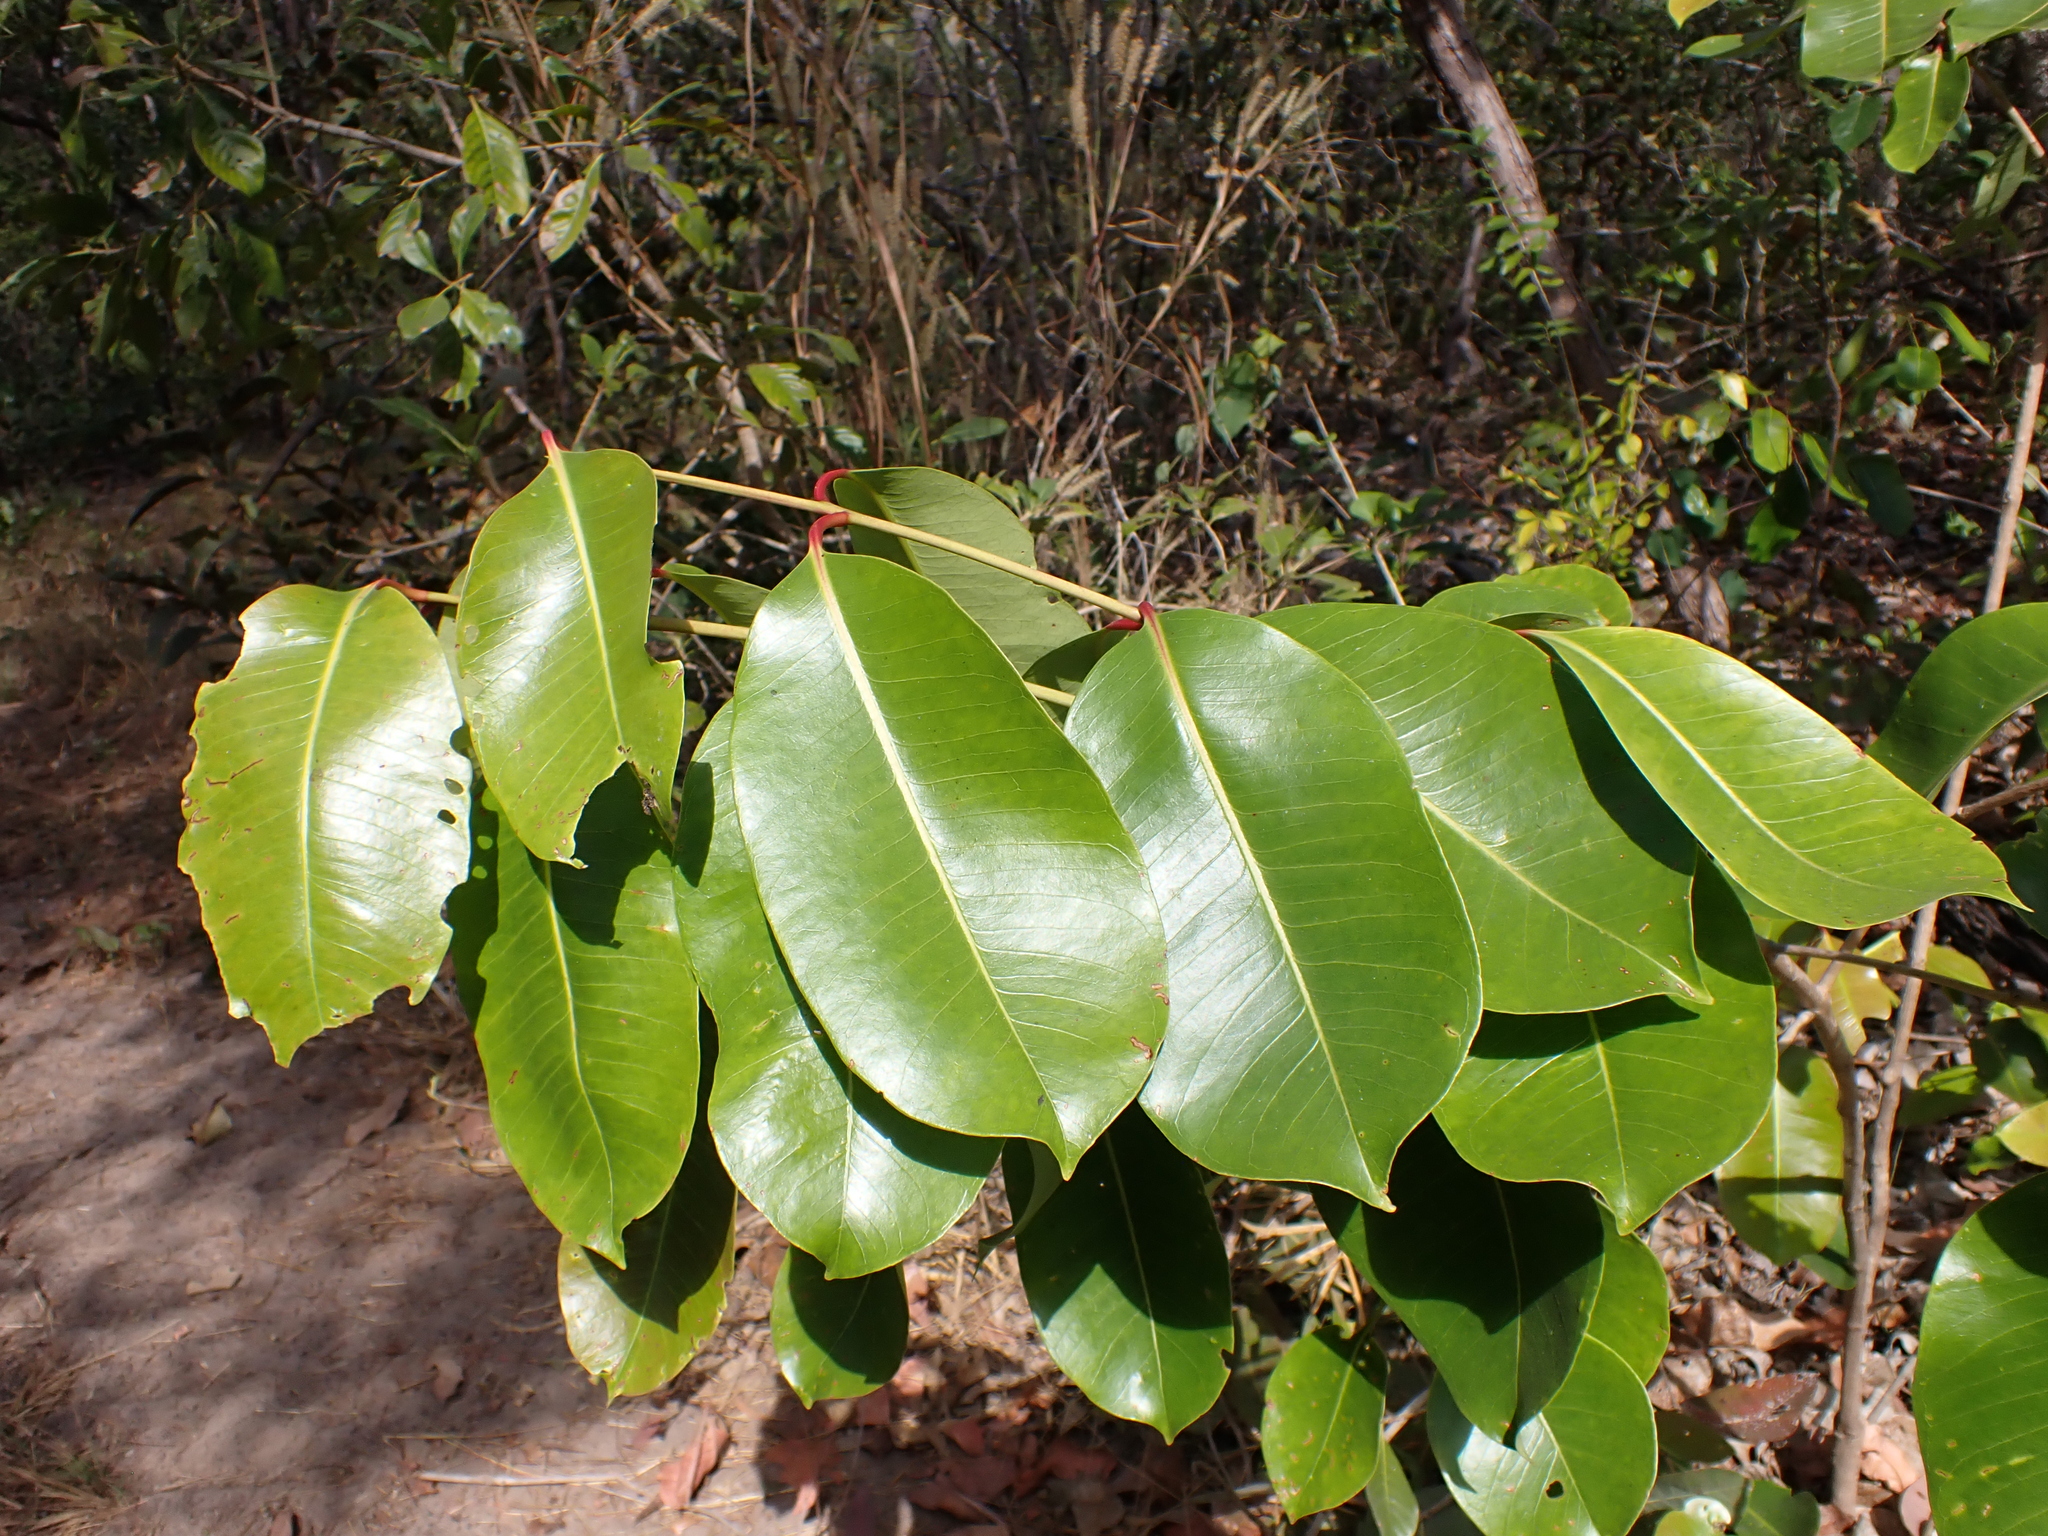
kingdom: Plantae
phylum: Tracheophyta
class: Magnoliopsida
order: Myrtales
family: Myrtaceae
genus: Syzygium
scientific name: Syzygium suborbiculare
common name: Red bush apple
